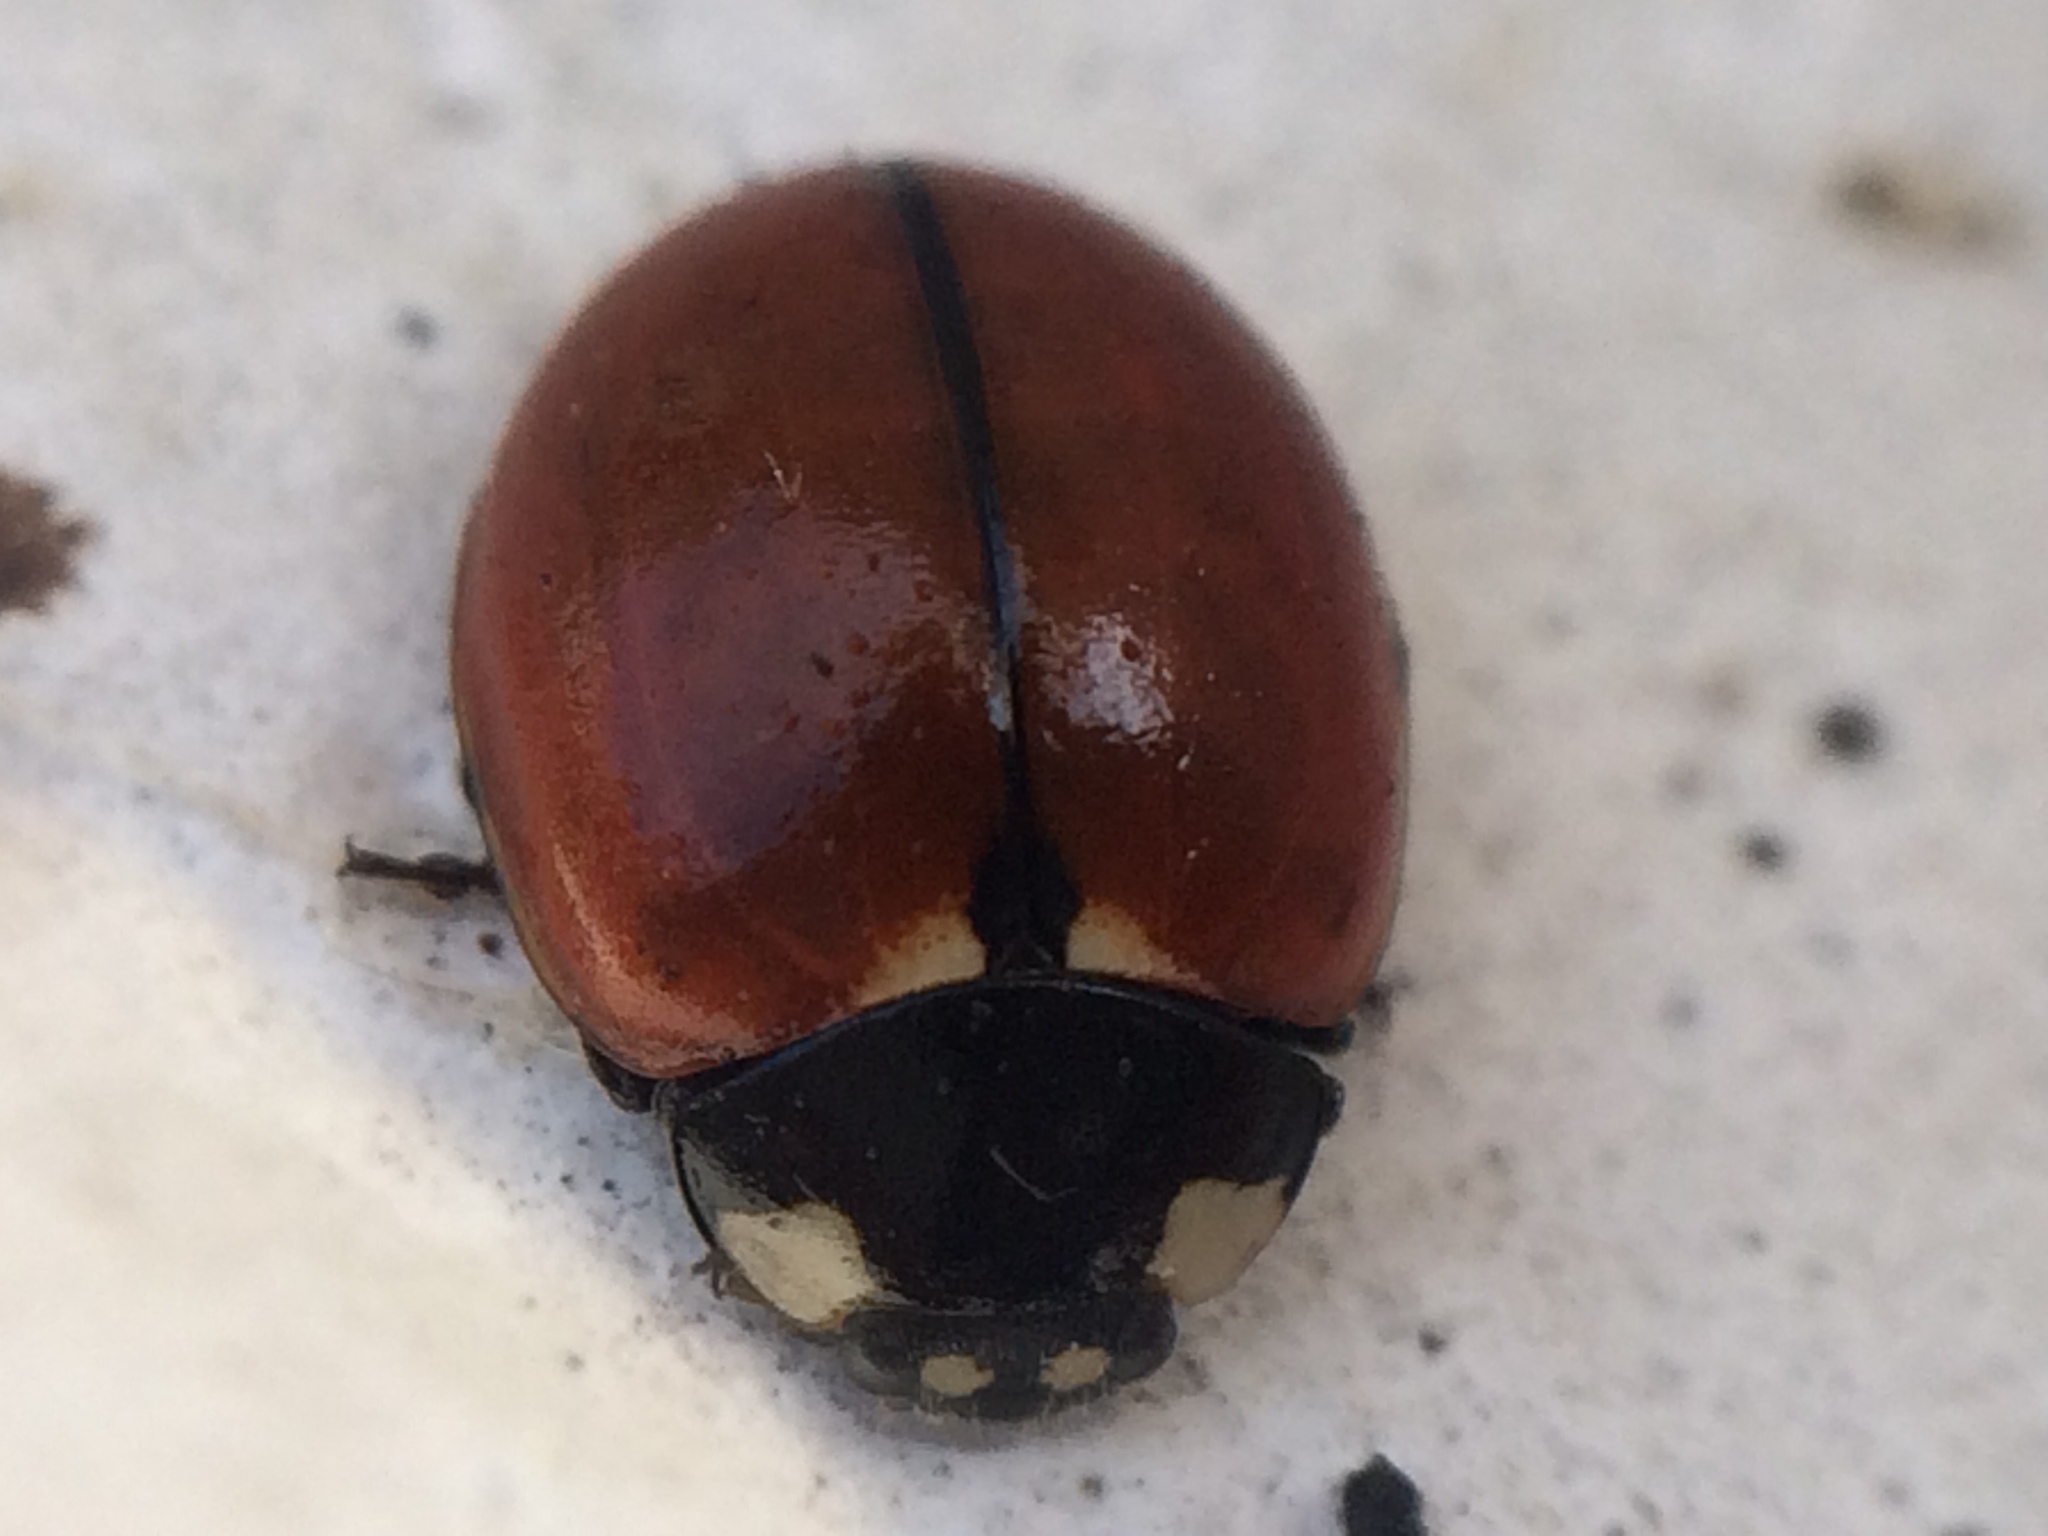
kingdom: Animalia
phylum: Arthropoda
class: Insecta
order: Coleoptera
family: Coccinellidae
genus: Coccinella
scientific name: Coccinella californica
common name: Lady beetle
